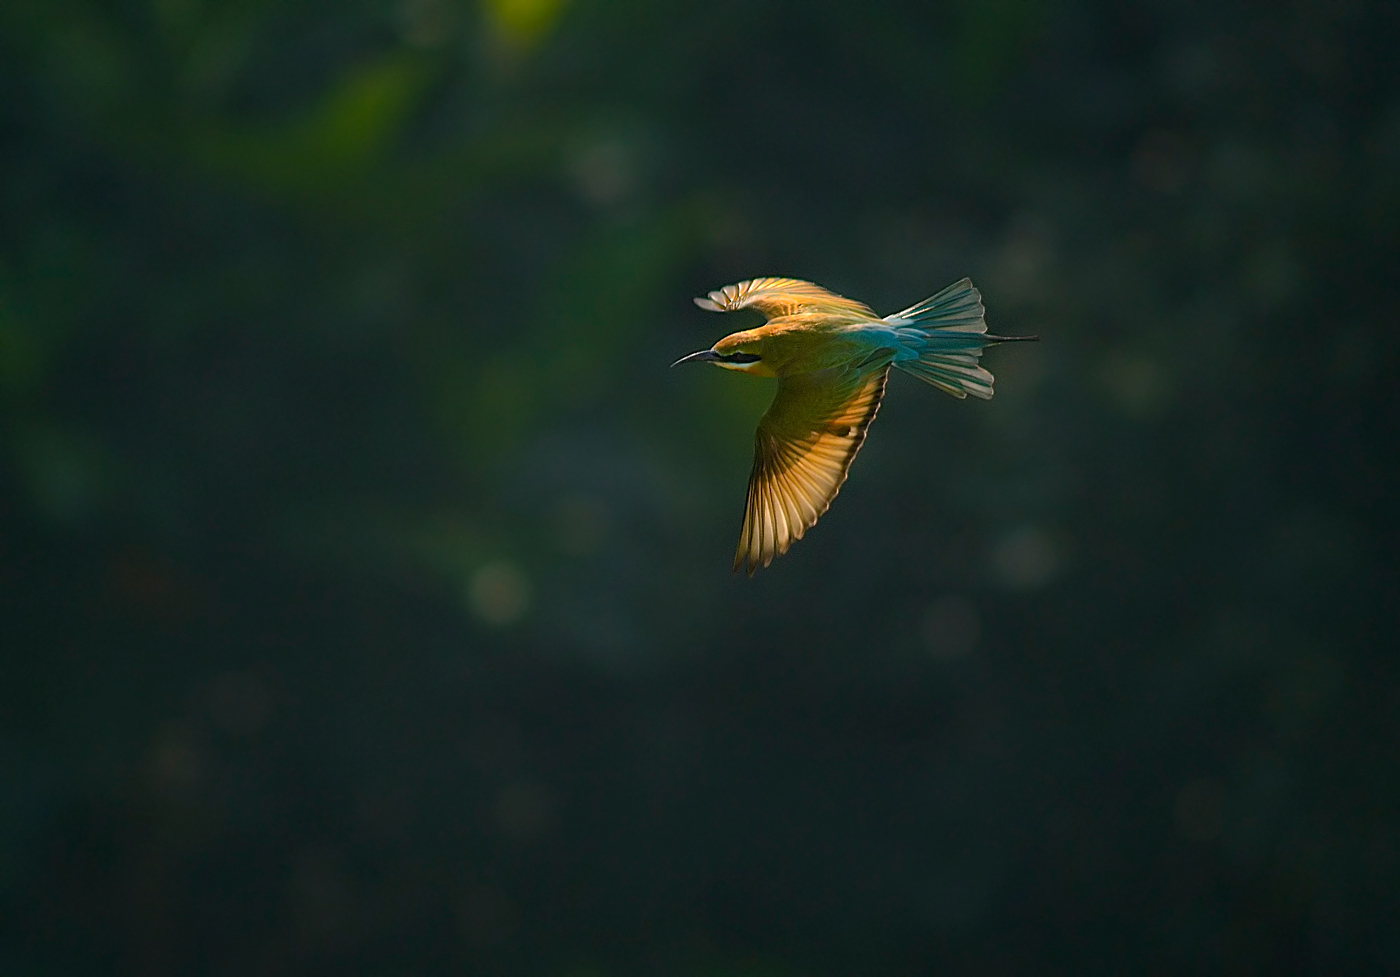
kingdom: Animalia
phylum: Chordata
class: Aves
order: Coraciiformes
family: Meropidae
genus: Merops
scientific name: Merops philippinus
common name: Blue-tailed bee-eater
